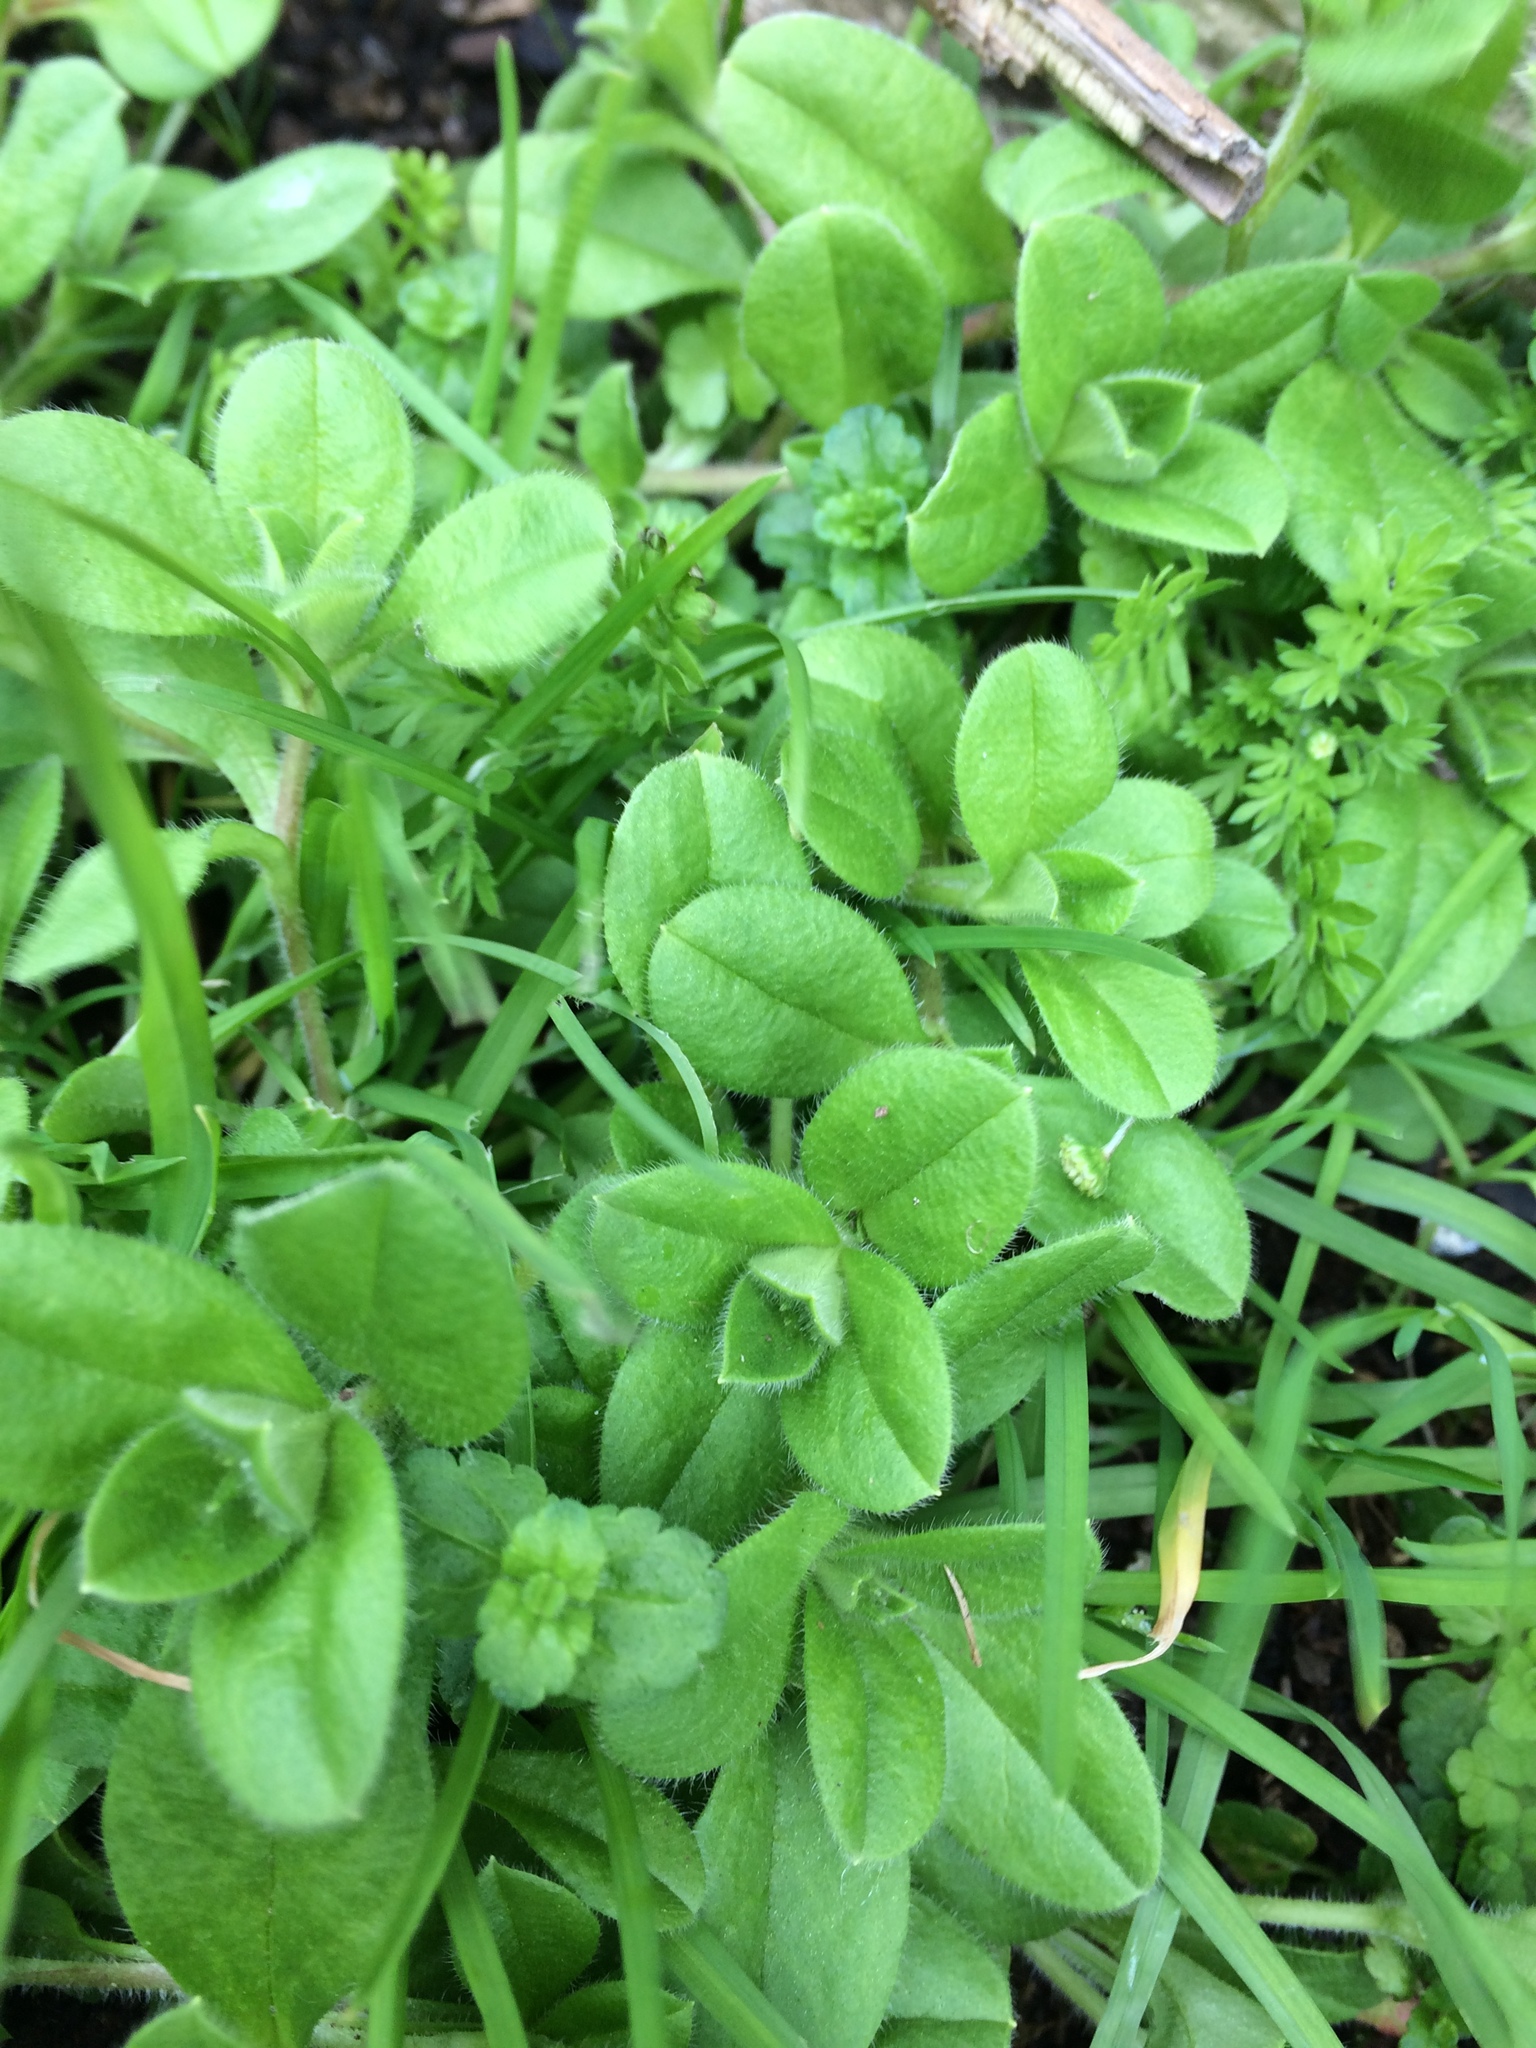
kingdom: Plantae
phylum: Tracheophyta
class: Magnoliopsida
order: Caryophyllales
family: Caryophyllaceae
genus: Cerastium
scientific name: Cerastium glomeratum
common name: Sticky chickweed
